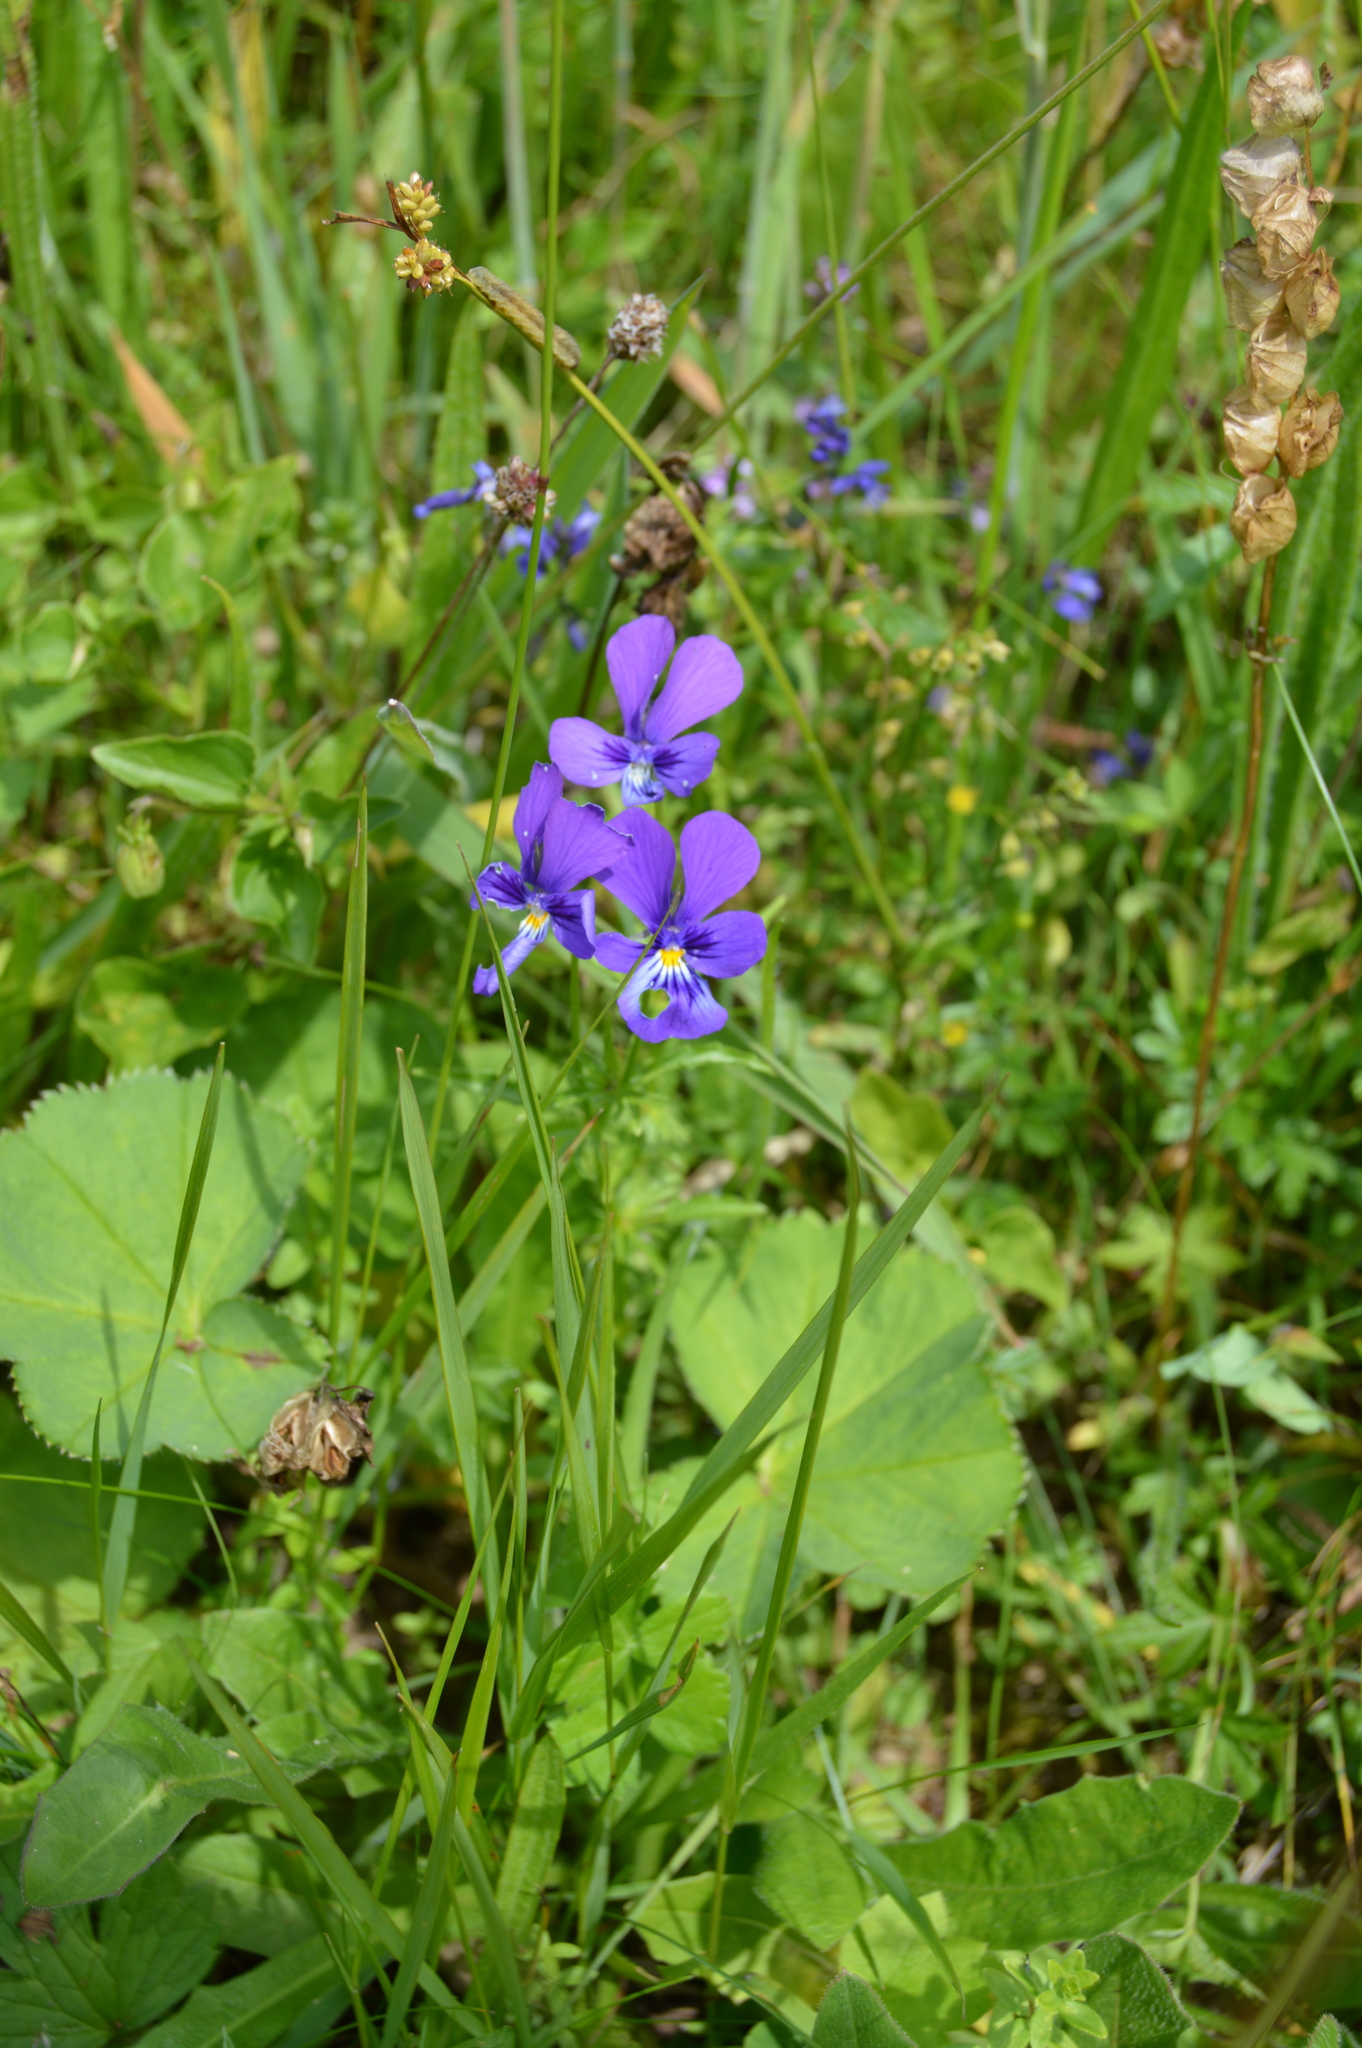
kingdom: Plantae
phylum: Tracheophyta
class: Magnoliopsida
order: Malpighiales
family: Violaceae
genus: Viola
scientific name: Viola declinata
